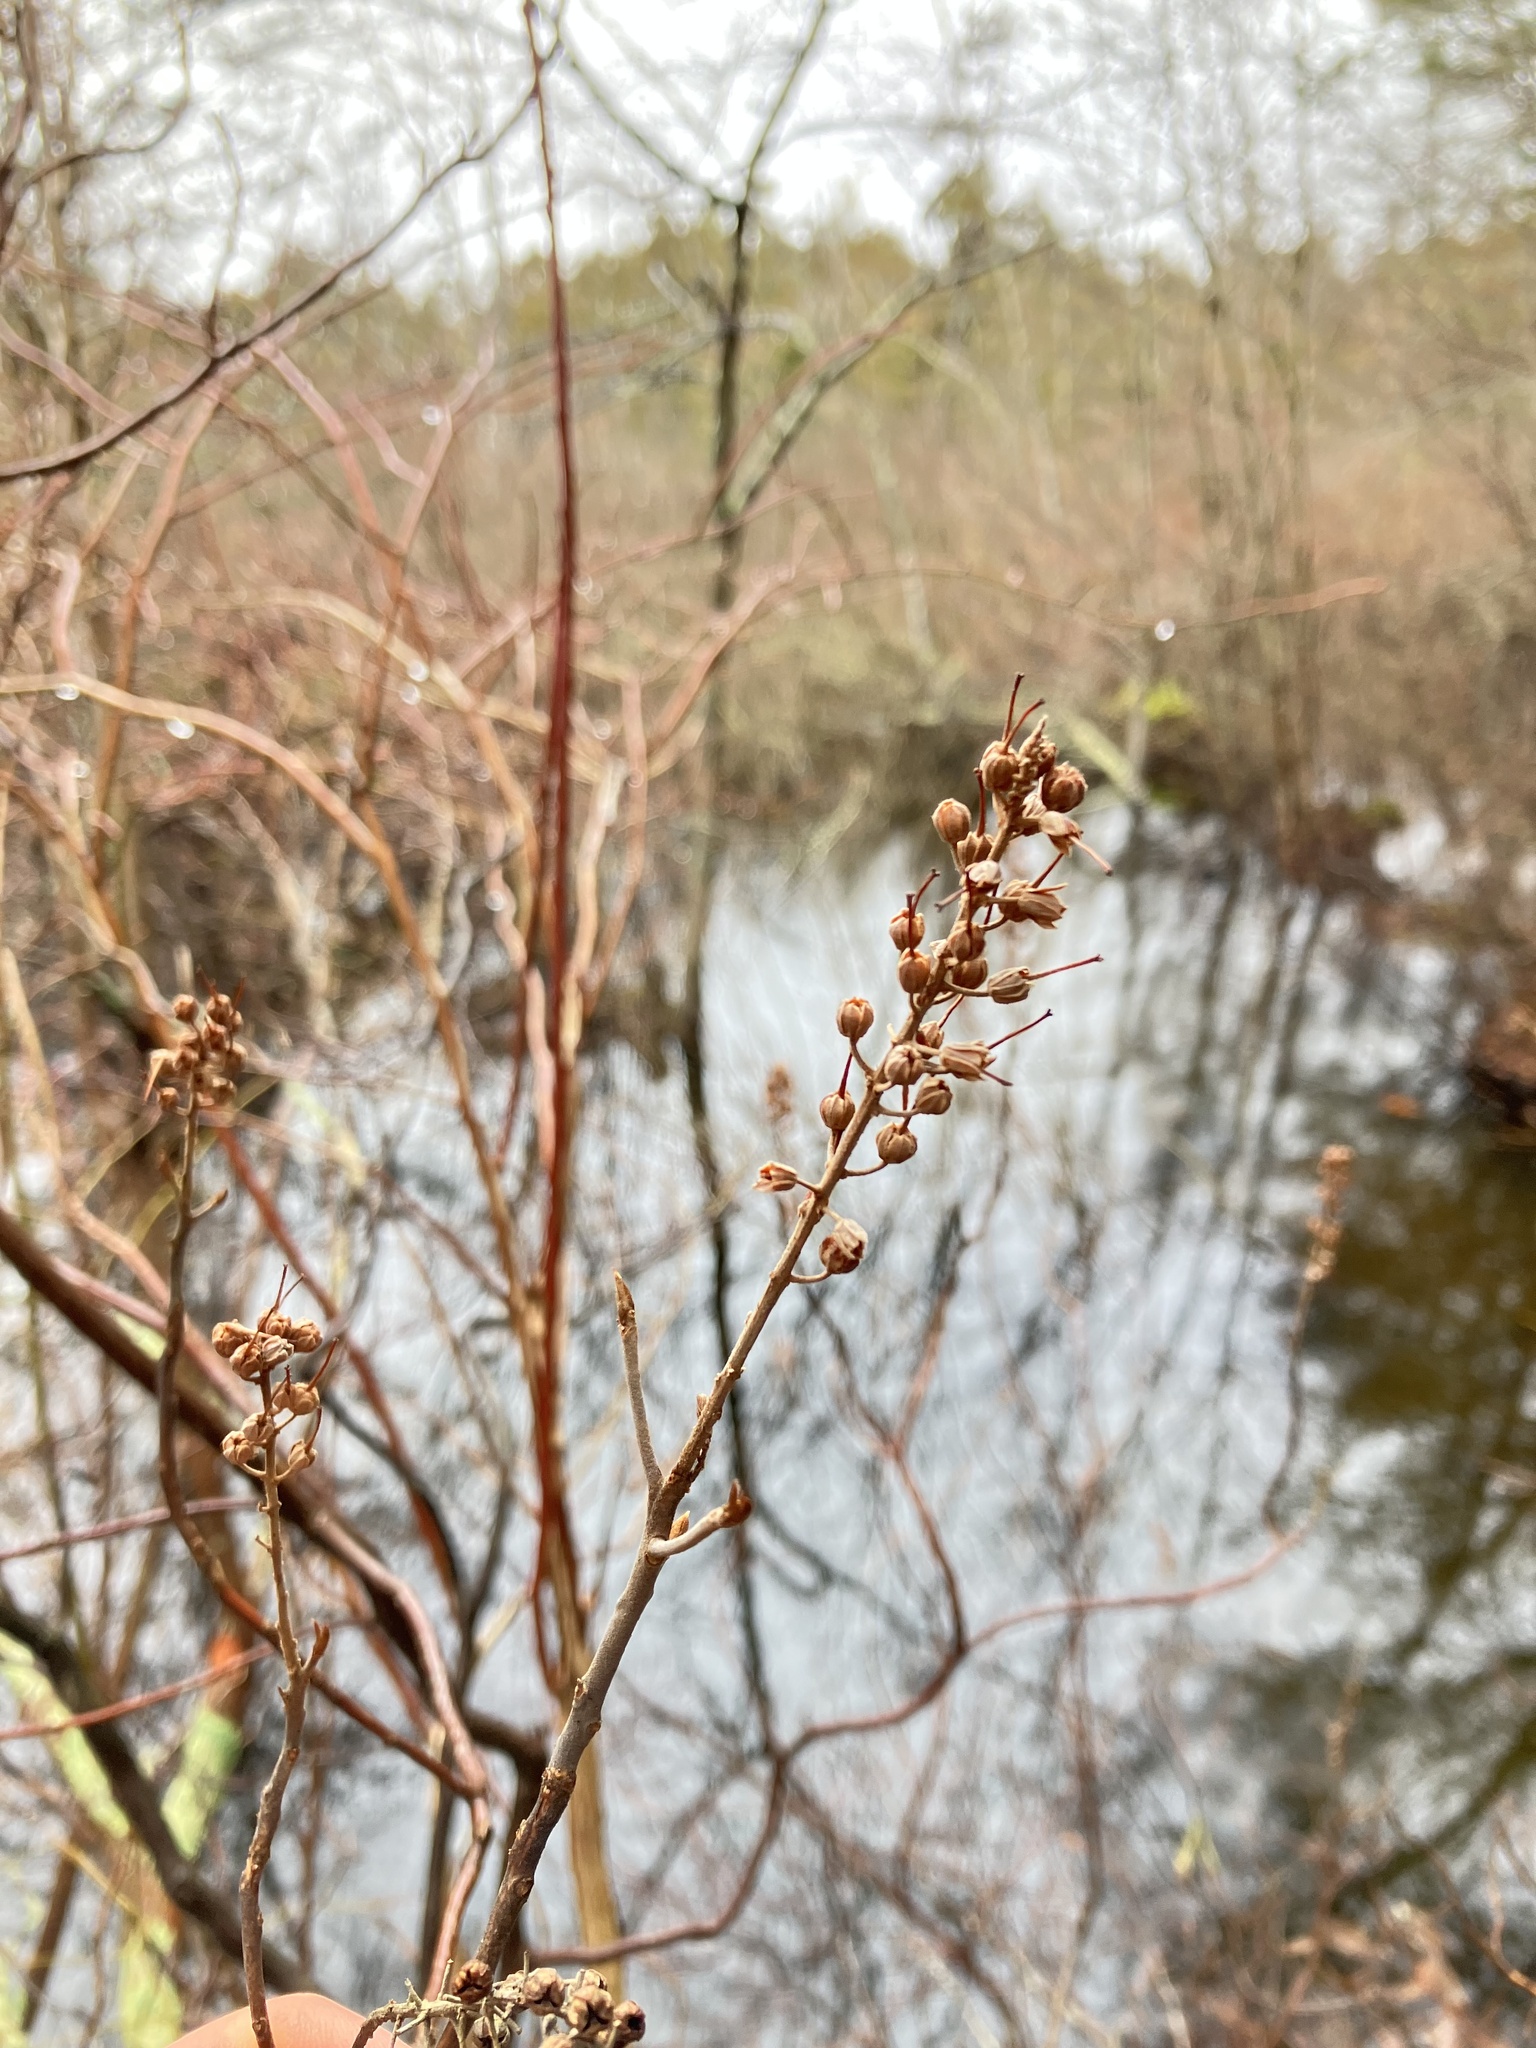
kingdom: Plantae
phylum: Tracheophyta
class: Magnoliopsida
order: Ericales
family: Clethraceae
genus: Clethra
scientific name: Clethra alnifolia
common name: Sweet pepperbush
